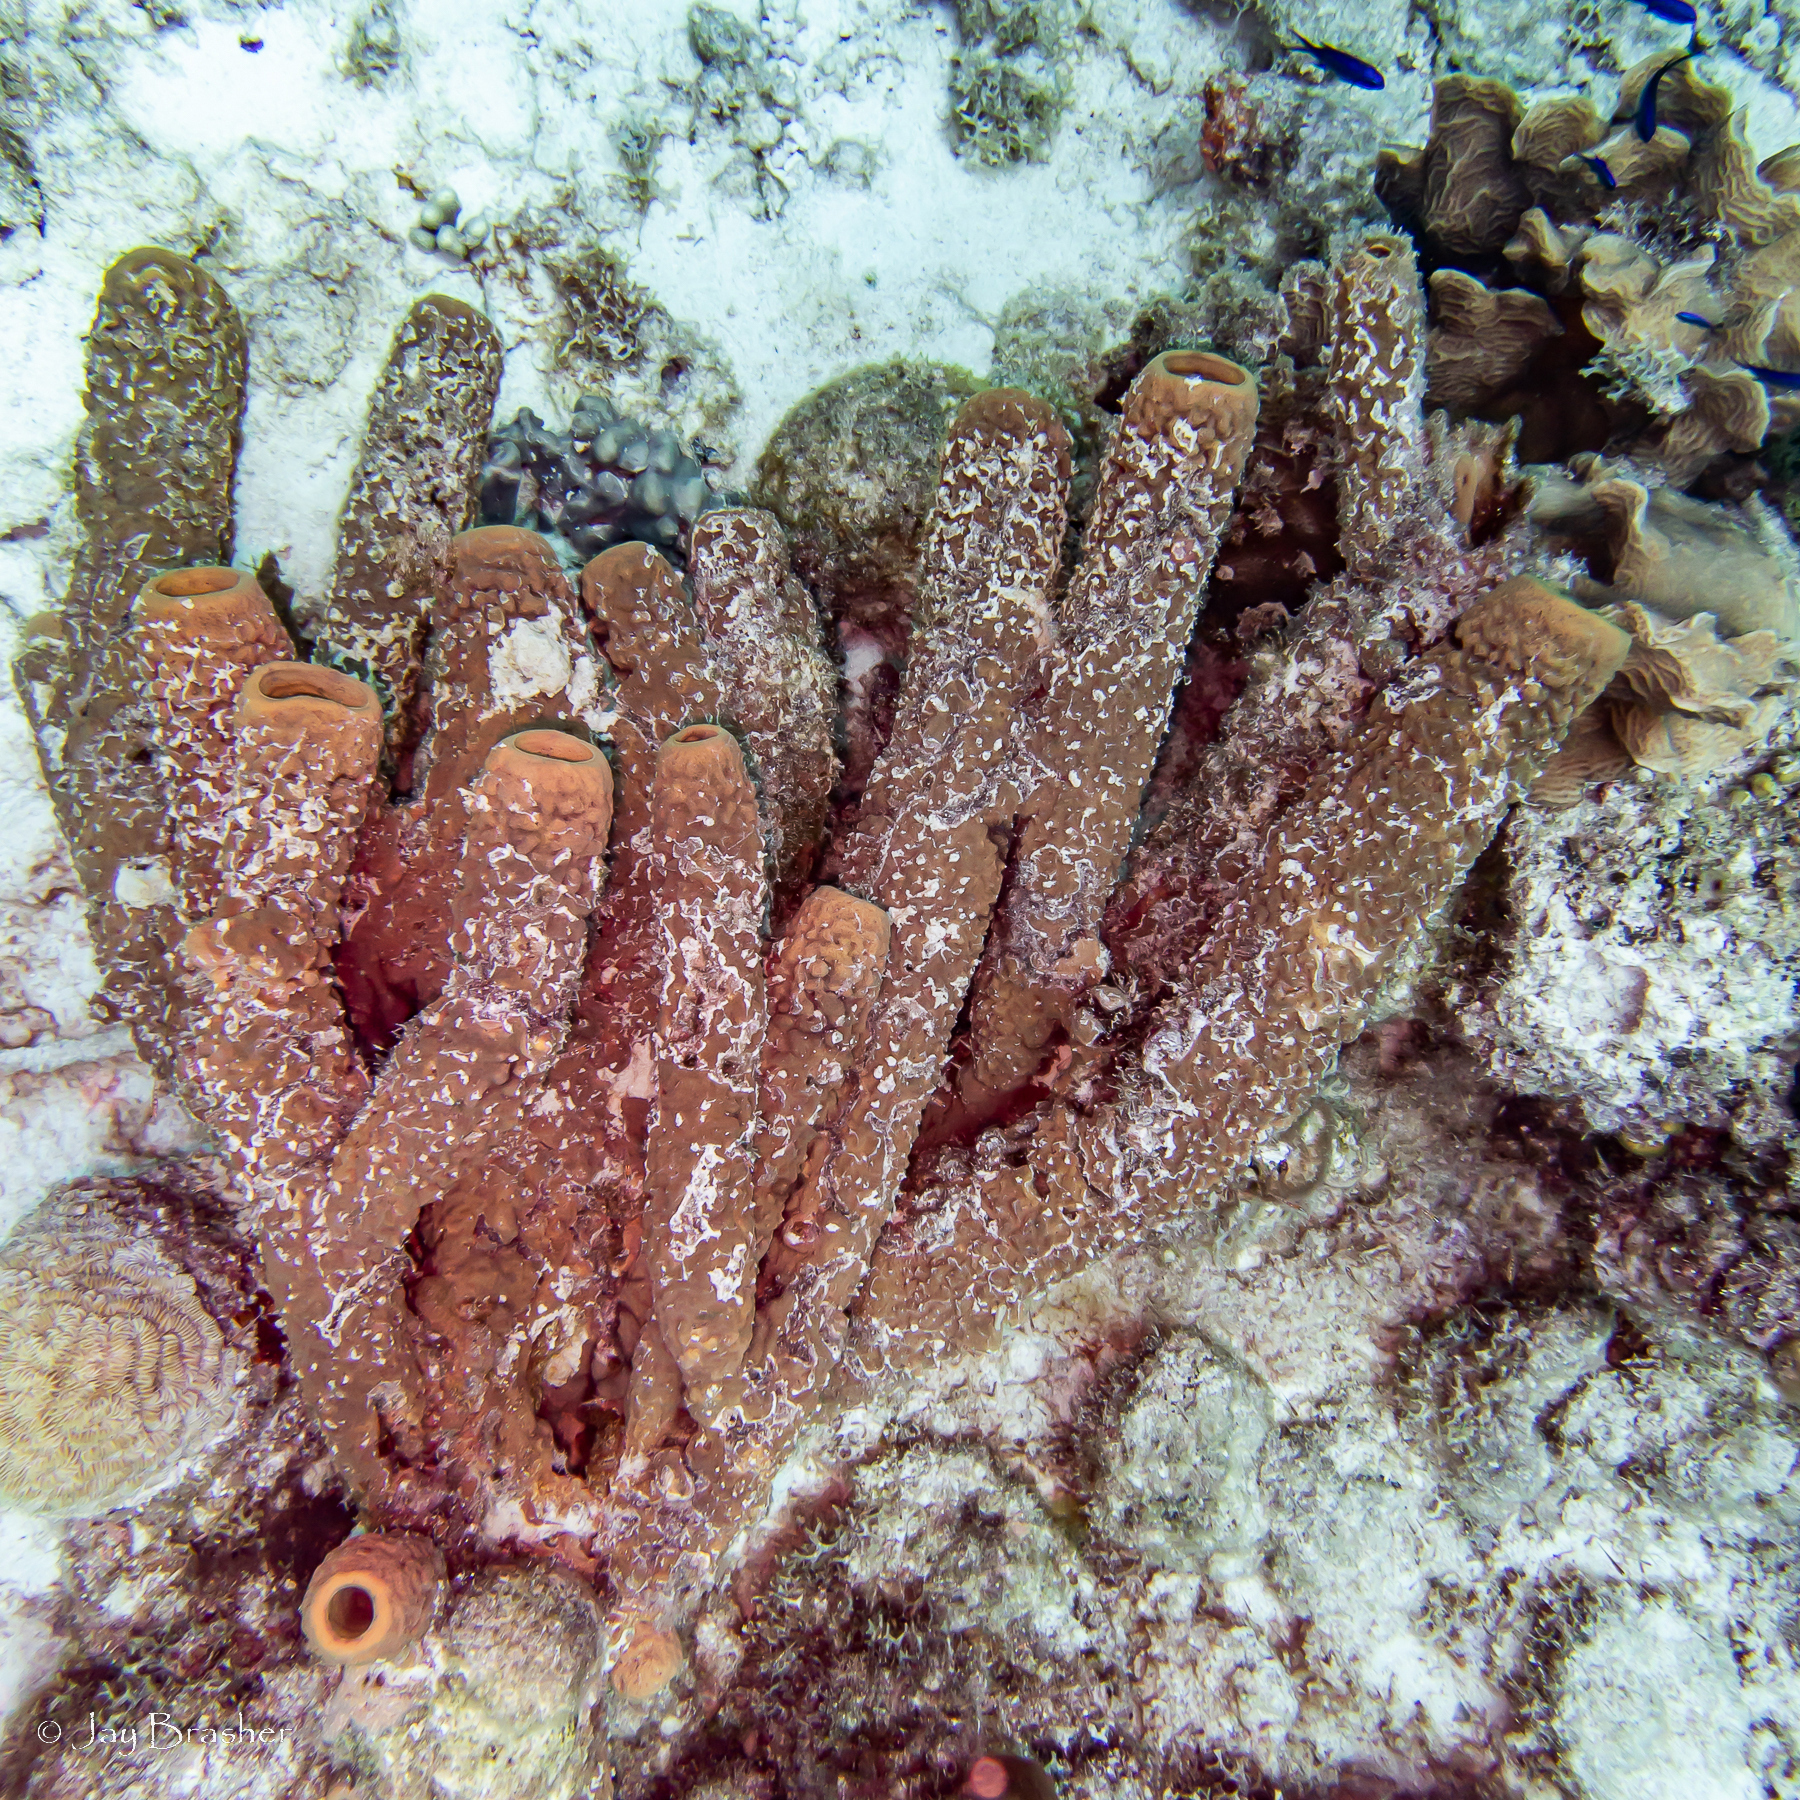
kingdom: Animalia
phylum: Porifera
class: Demospongiae
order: Verongiida
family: Aplysinidae
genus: Aplysina
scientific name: Aplysina archeri
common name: Stove-pipe sponge
